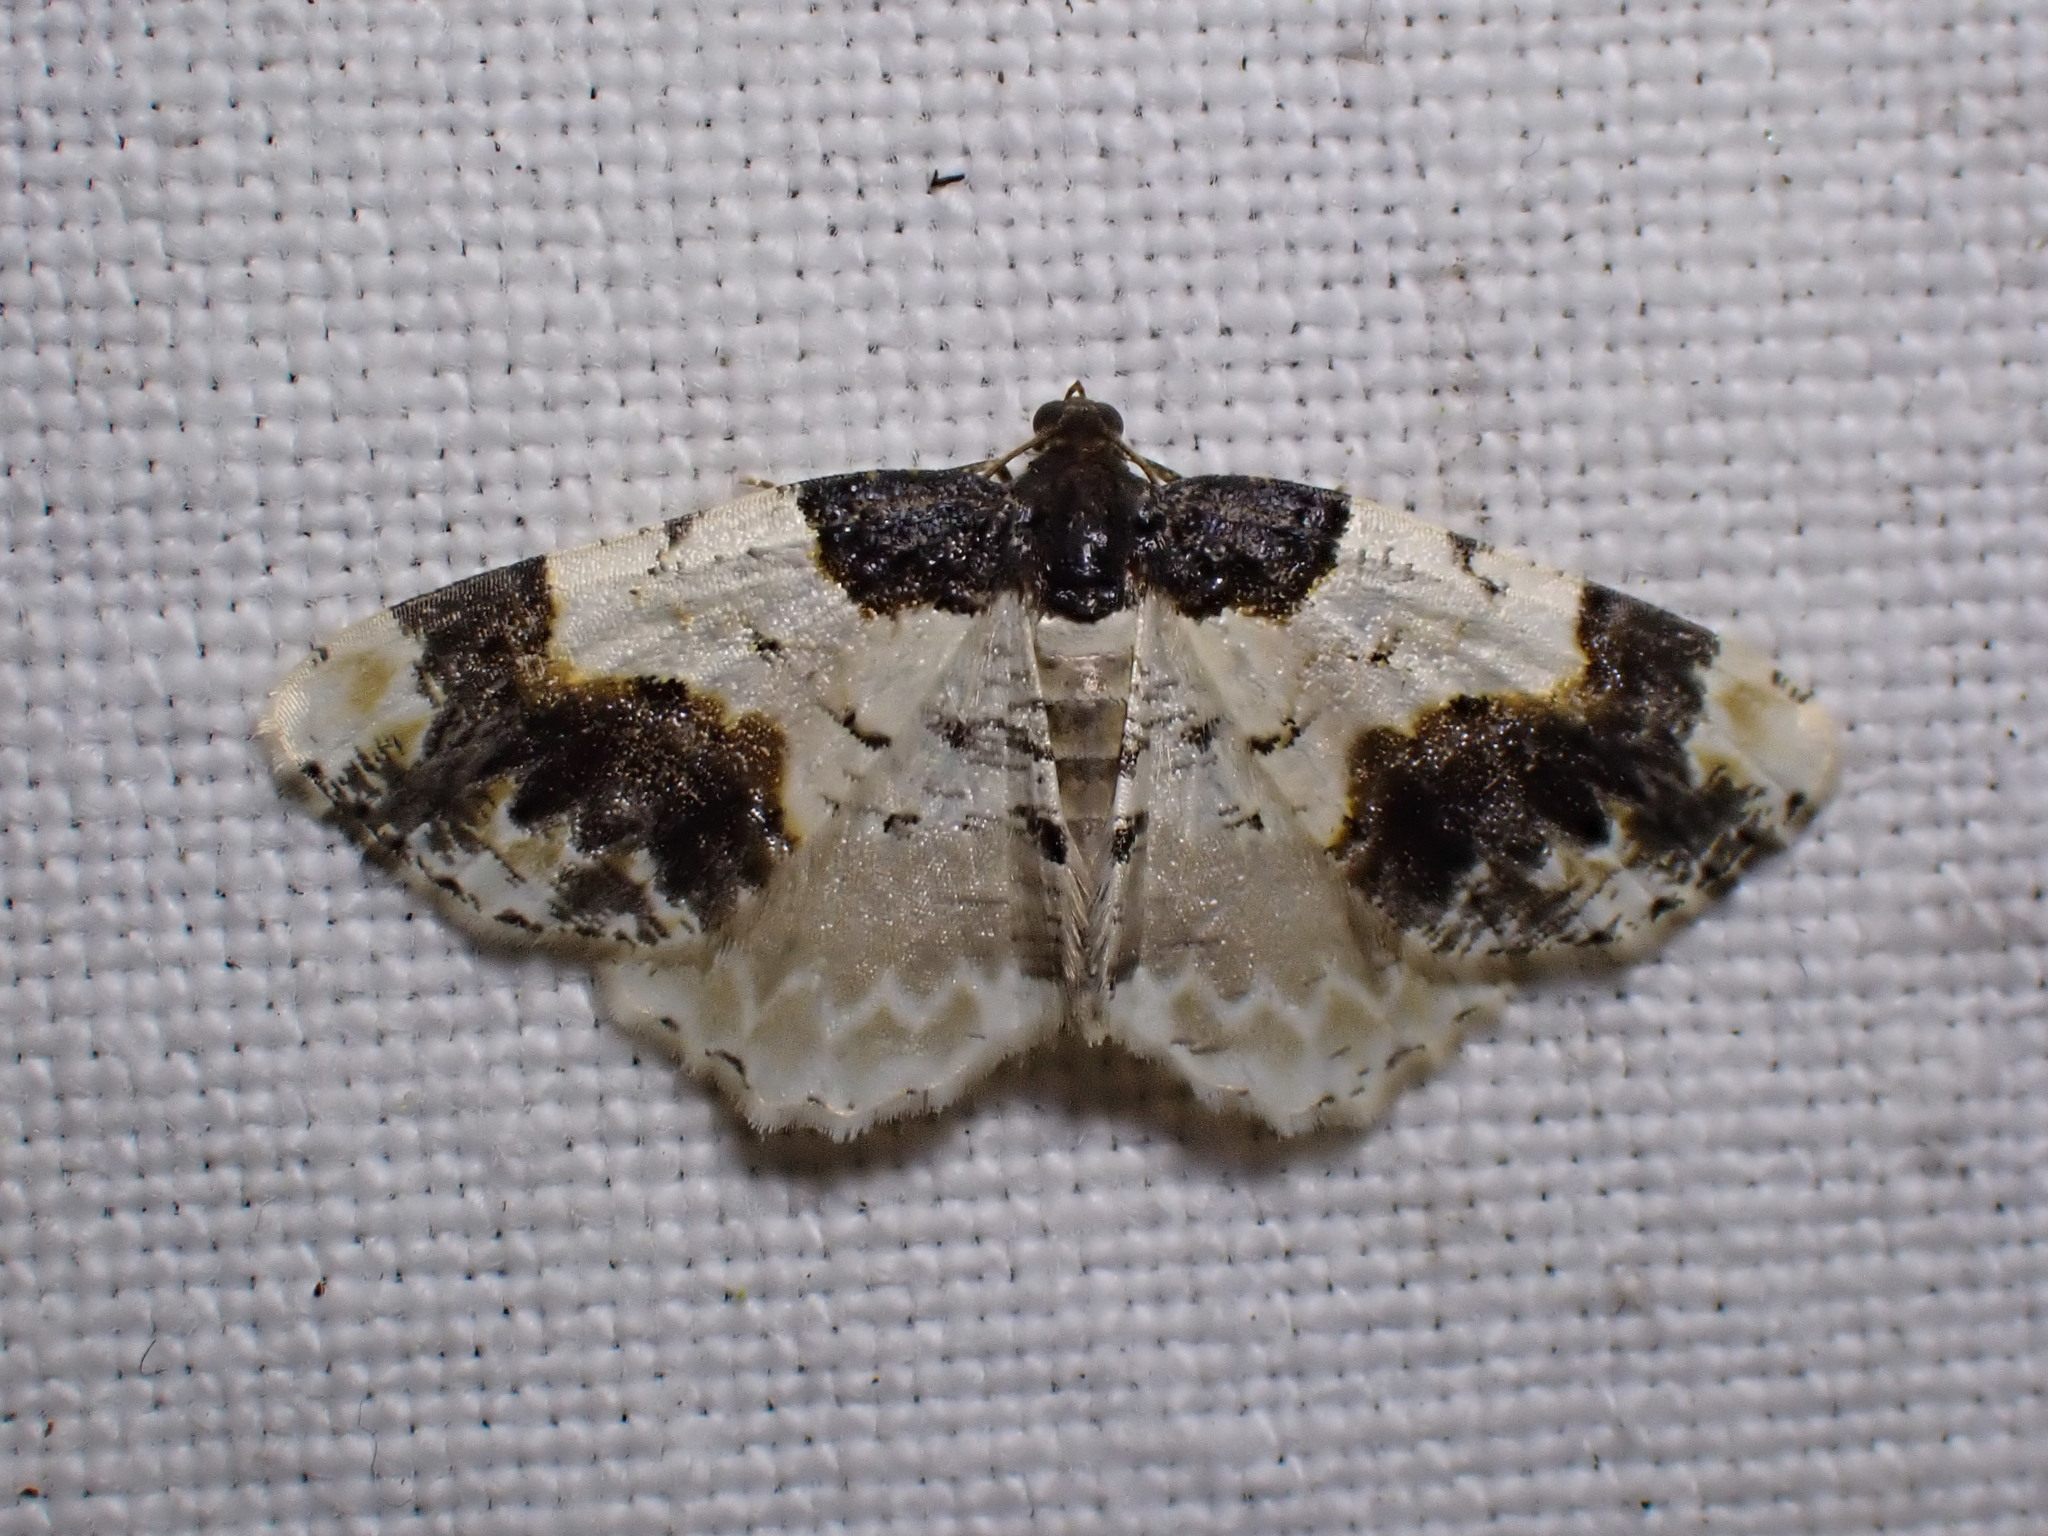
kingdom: Animalia
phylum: Arthropoda
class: Insecta
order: Lepidoptera
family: Geometridae
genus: Ligdia
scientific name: Ligdia adustata
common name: Scorched carpet
